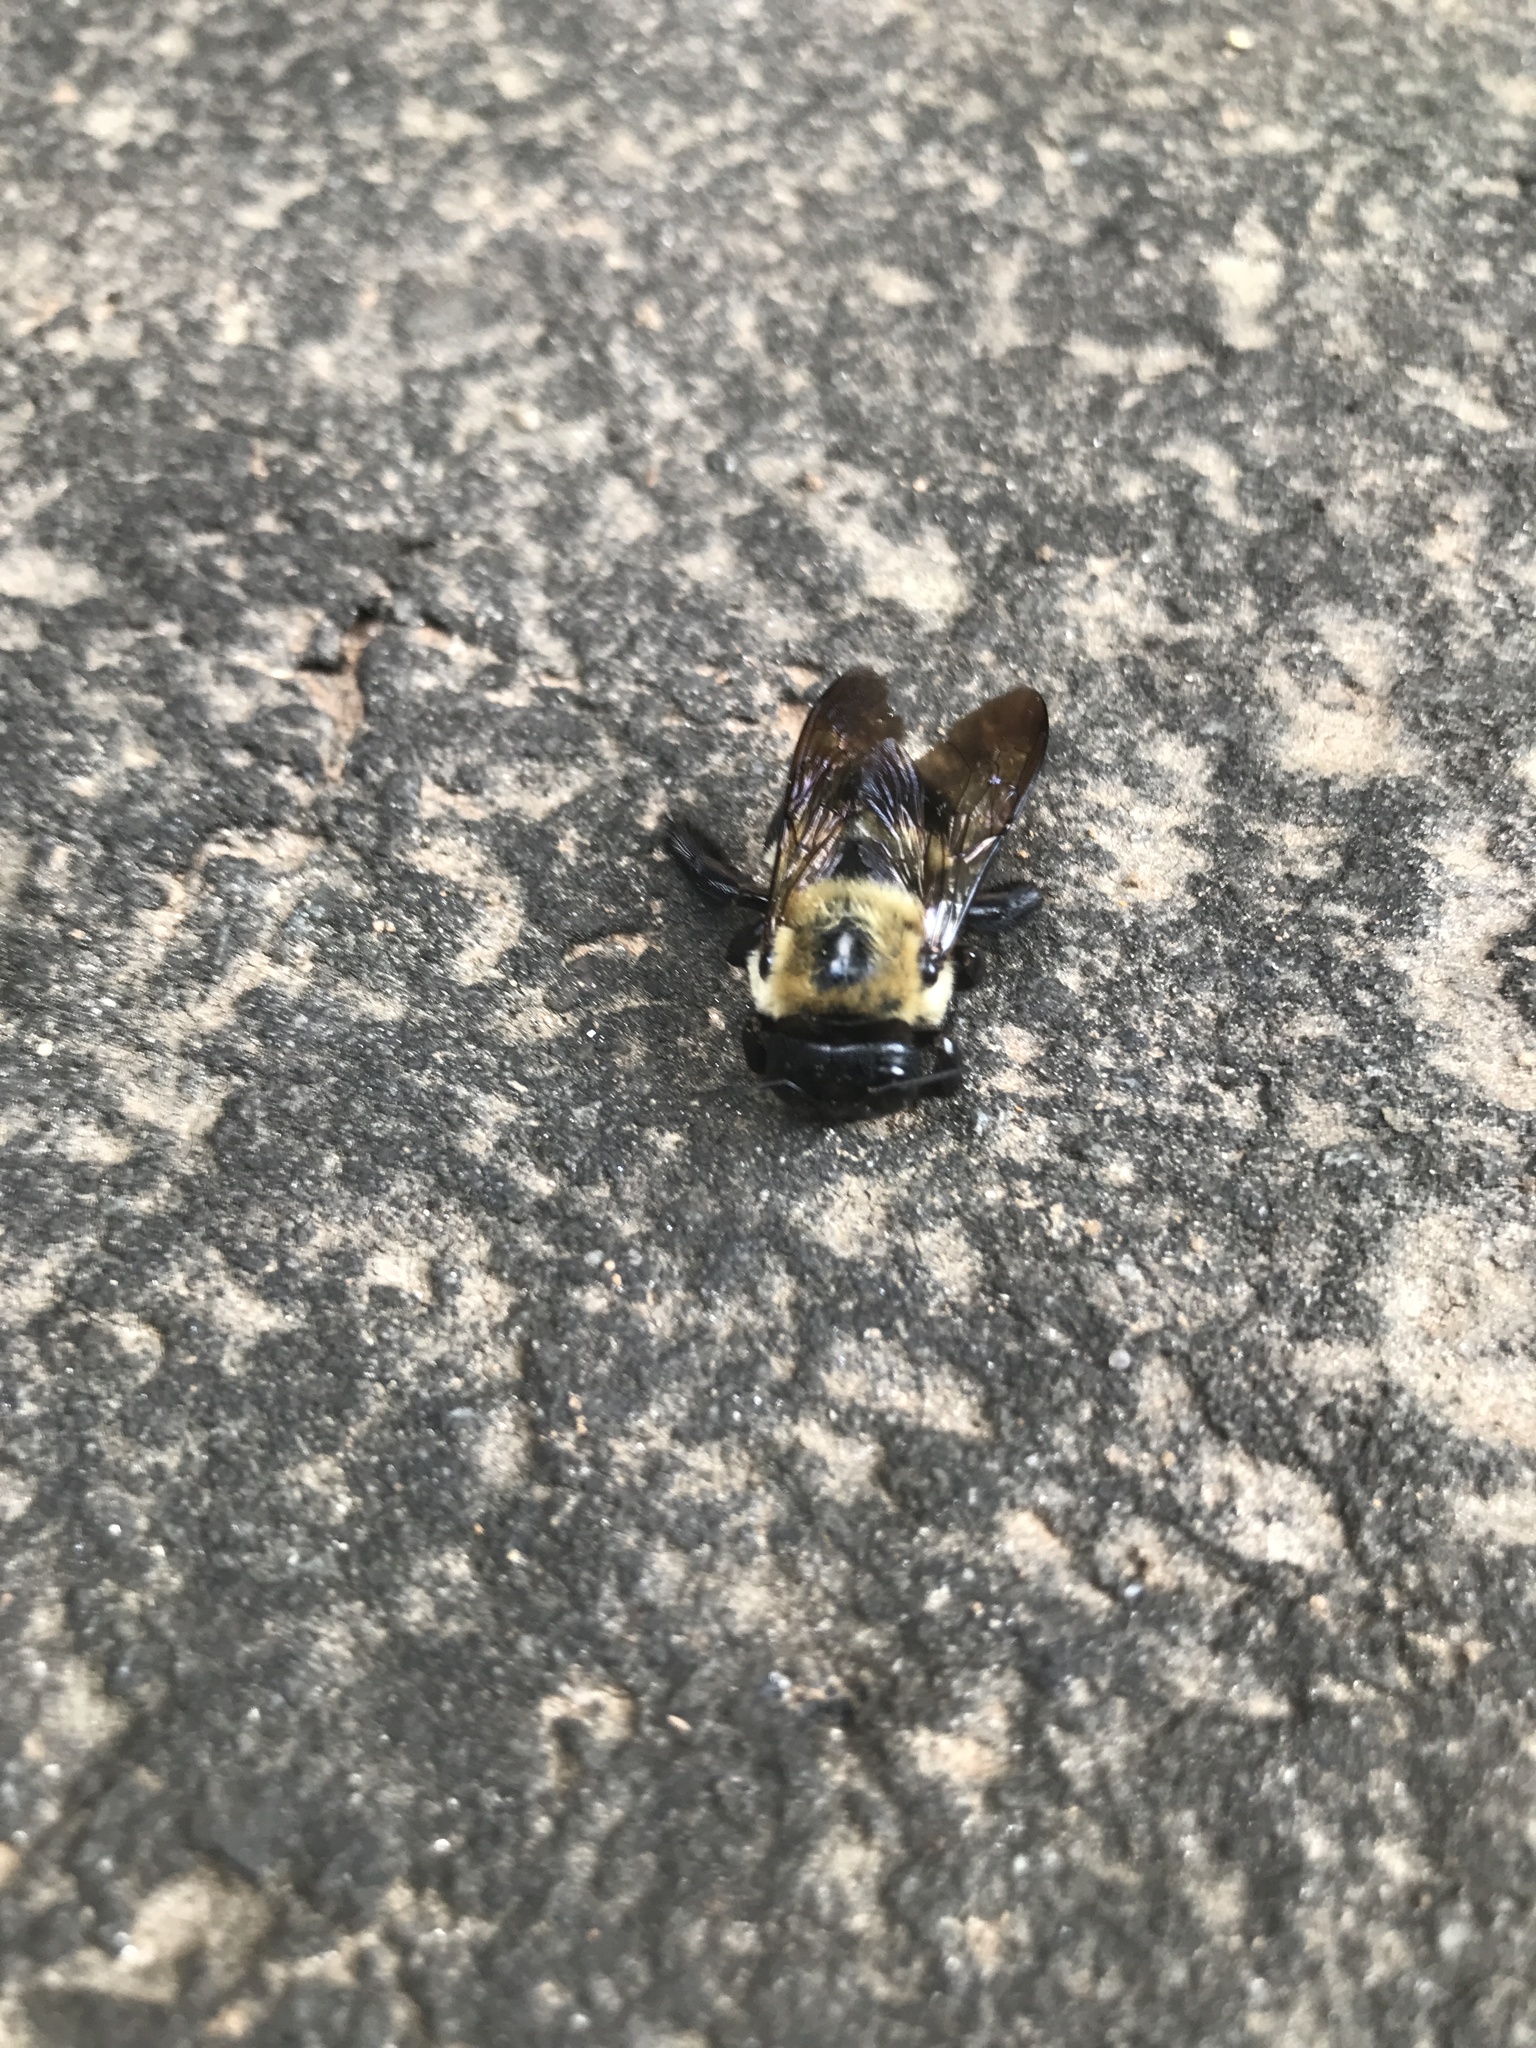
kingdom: Animalia
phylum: Arthropoda
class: Insecta
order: Hymenoptera
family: Apidae
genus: Xylocopa
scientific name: Xylocopa virginica
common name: Carpenter bee
